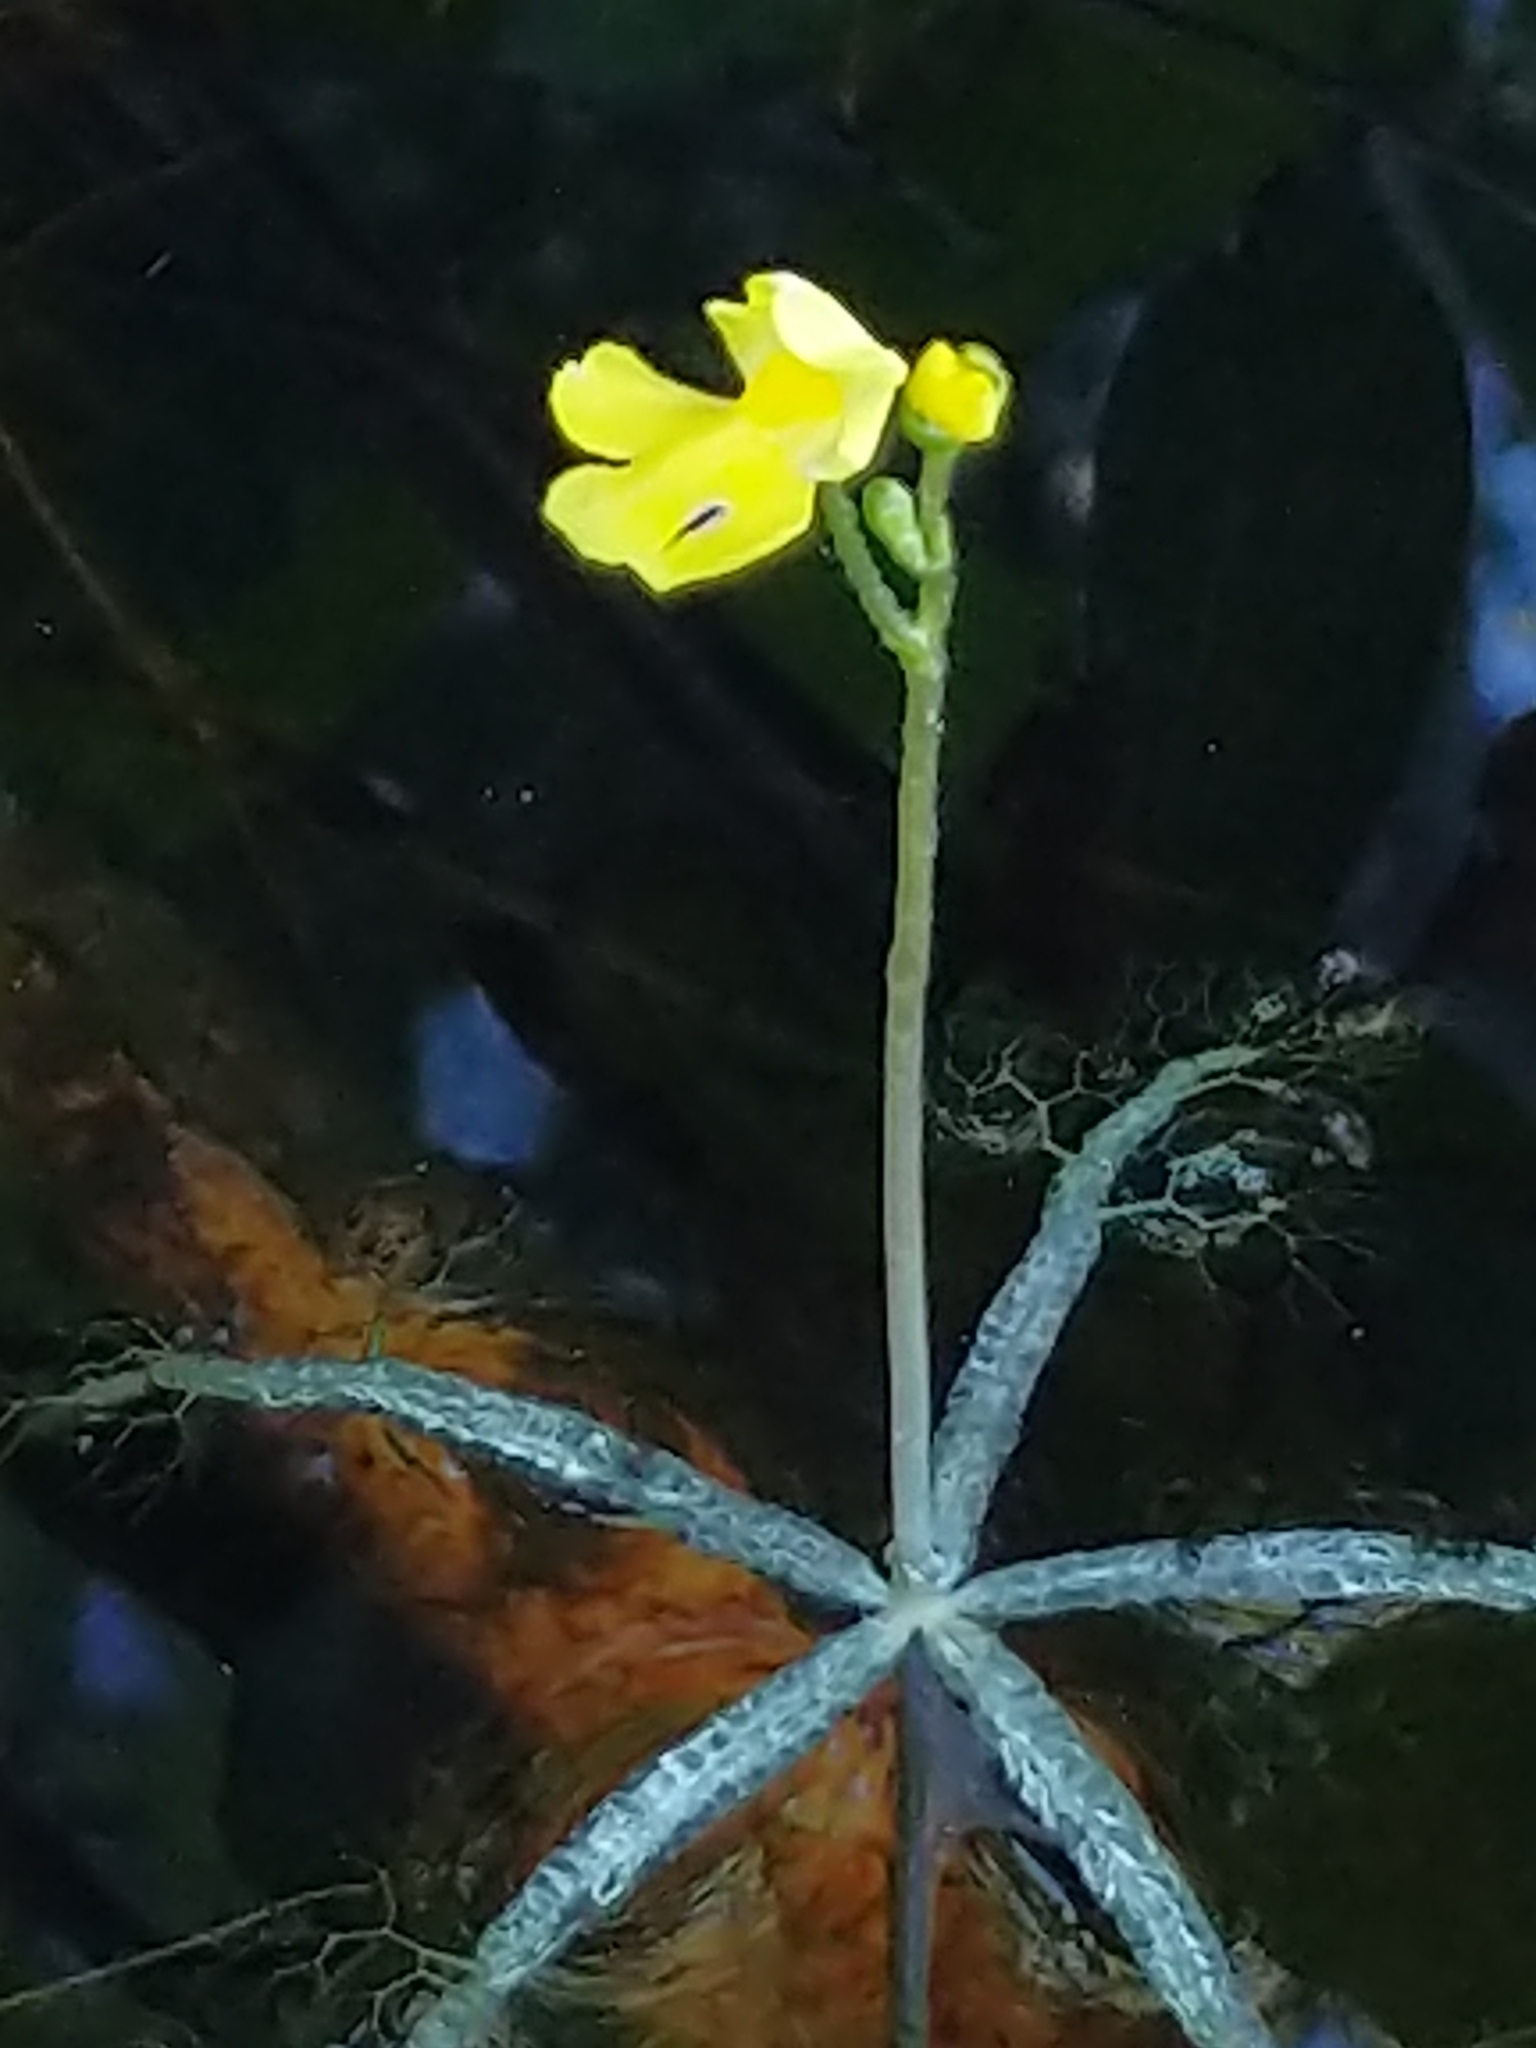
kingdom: Plantae
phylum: Tracheophyta
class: Magnoliopsida
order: Lamiales
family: Lentibulariaceae
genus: Utricularia
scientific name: Utricularia radiata
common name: Floating bladderwort
